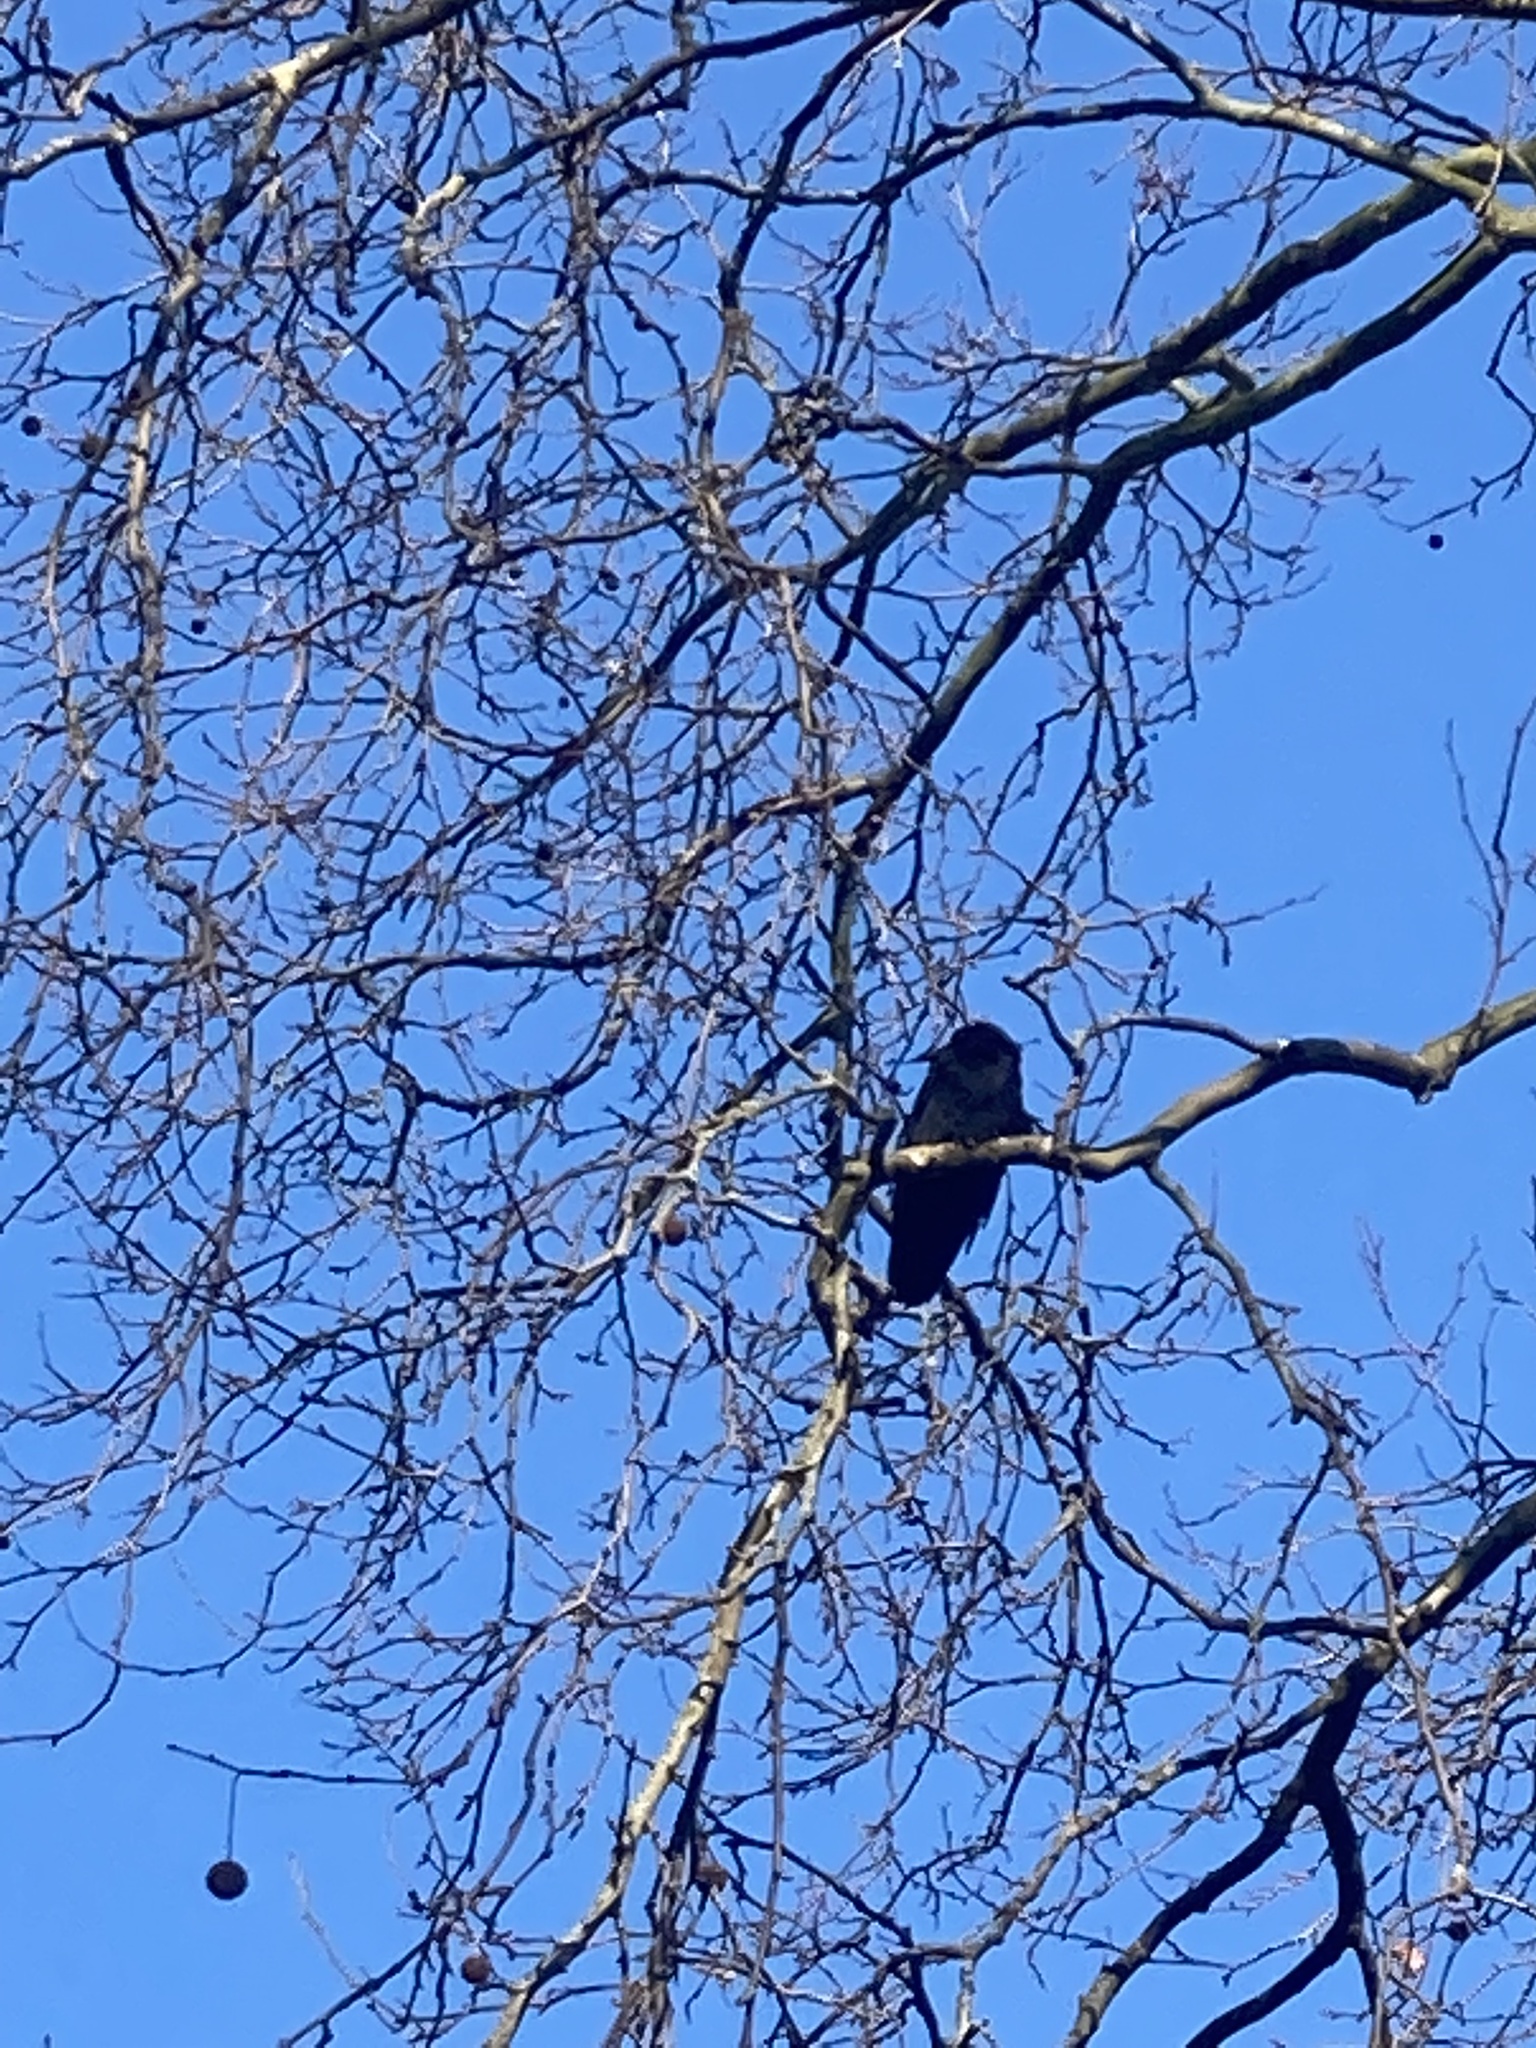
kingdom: Animalia
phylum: Chordata
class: Aves
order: Passeriformes
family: Corvidae
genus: Corvus
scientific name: Corvus corone
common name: Carrion crow
